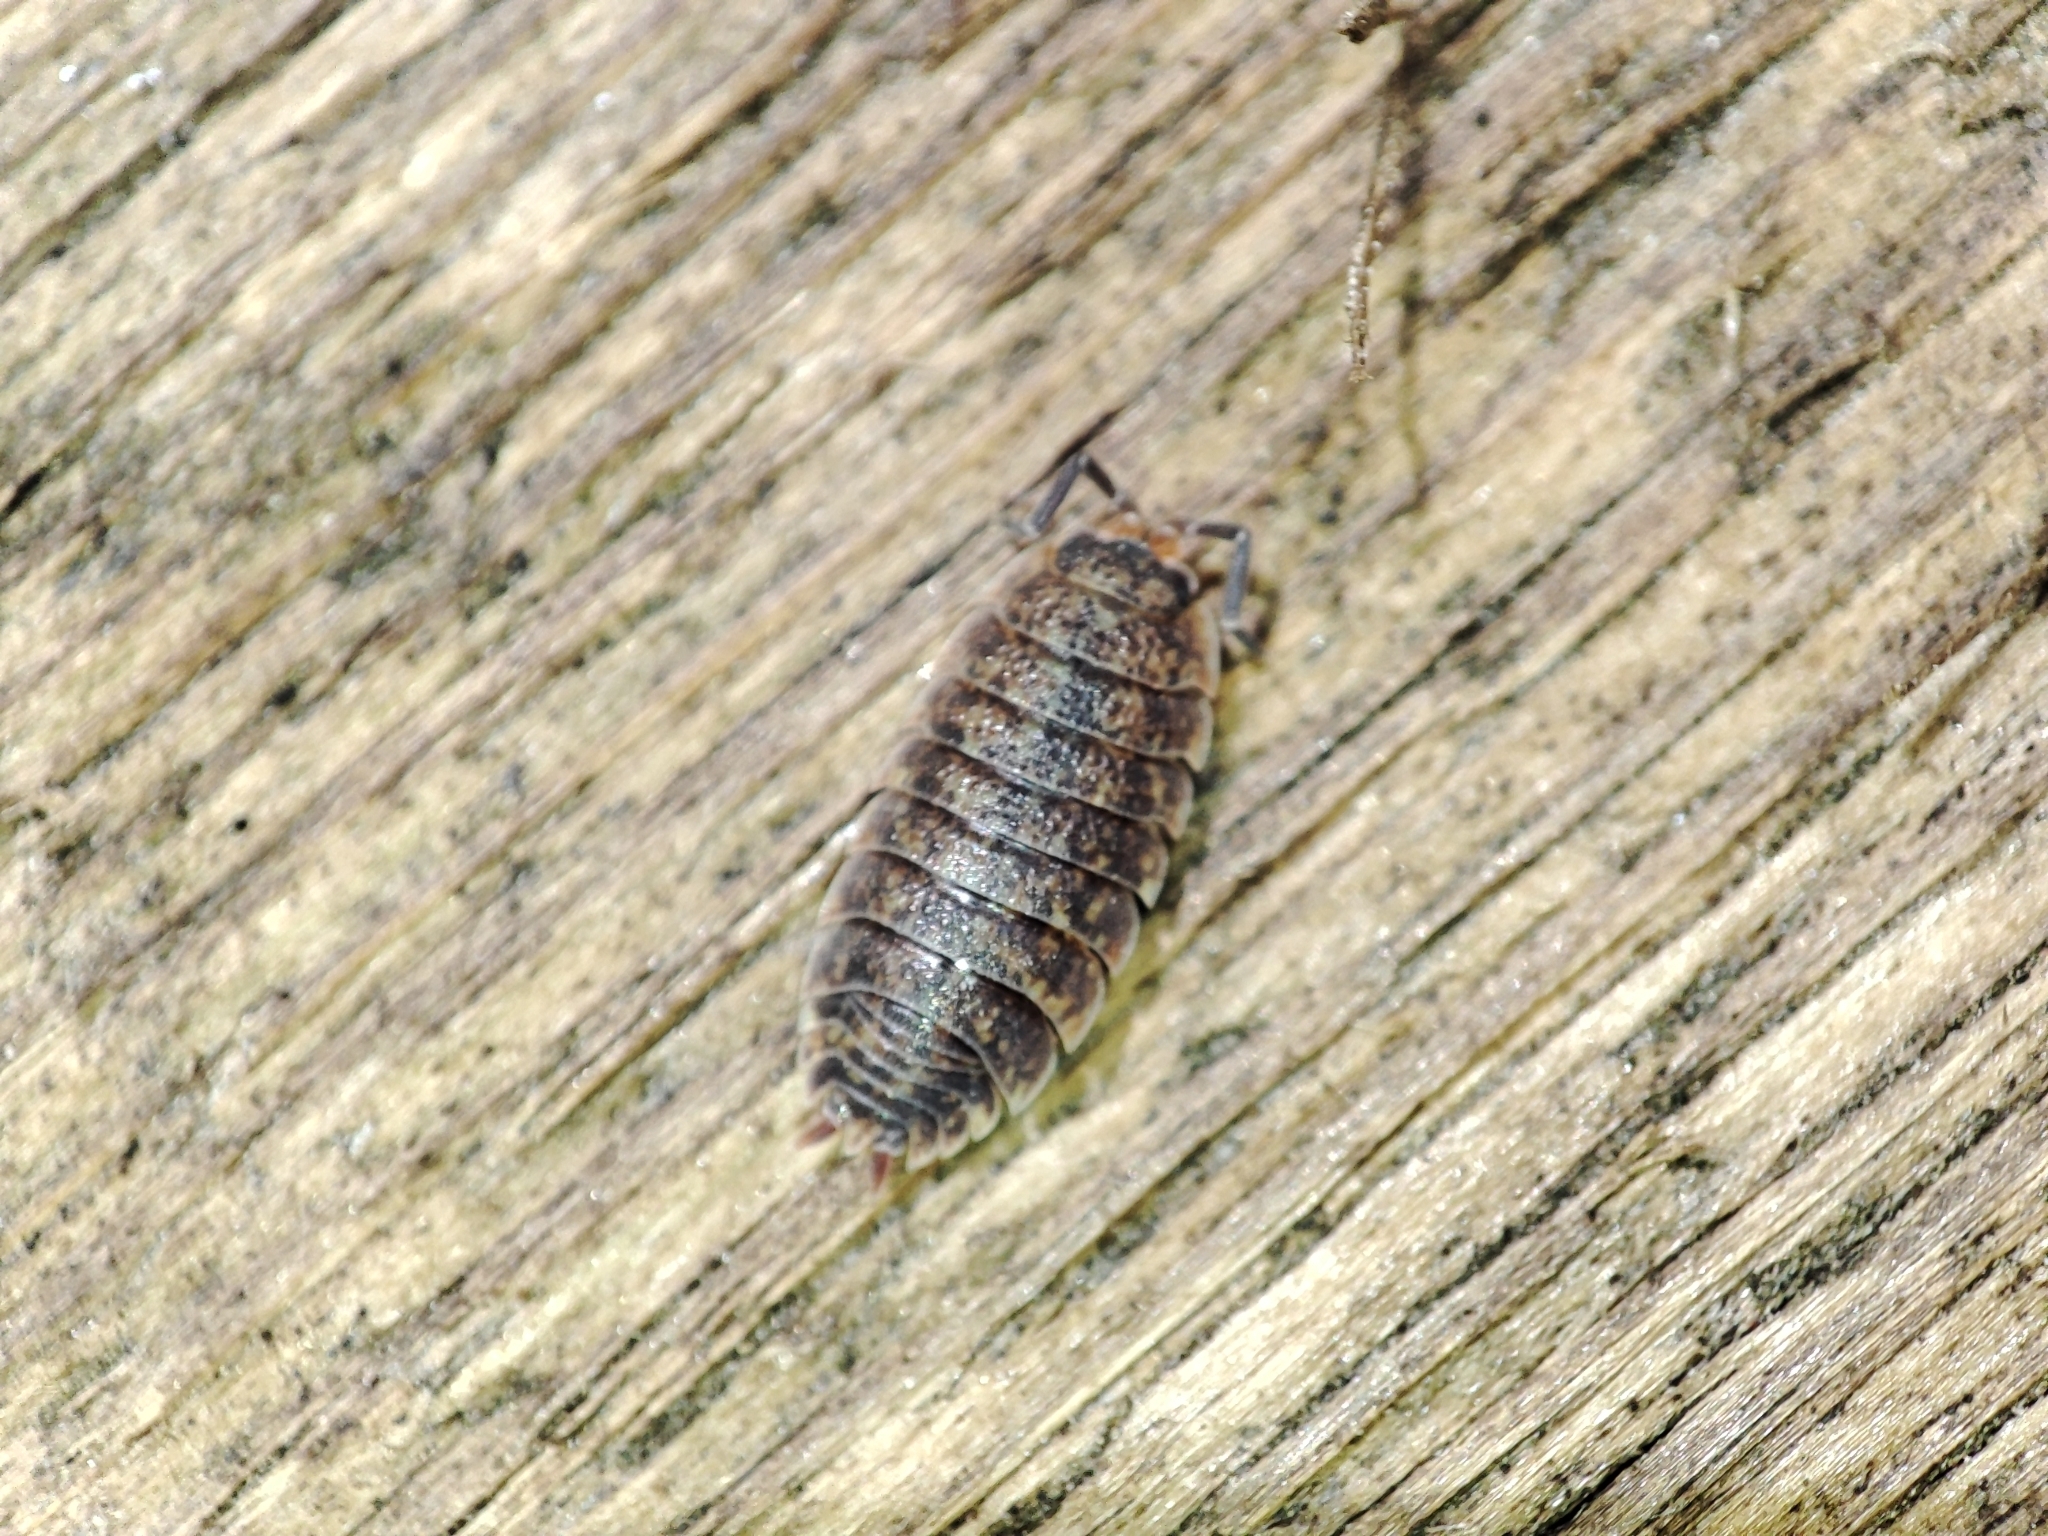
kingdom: Animalia
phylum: Arthropoda
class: Malacostraca
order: Isopoda
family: Porcellionidae
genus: Porcellio
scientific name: Porcellio scaber
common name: Common rough woodlouse
